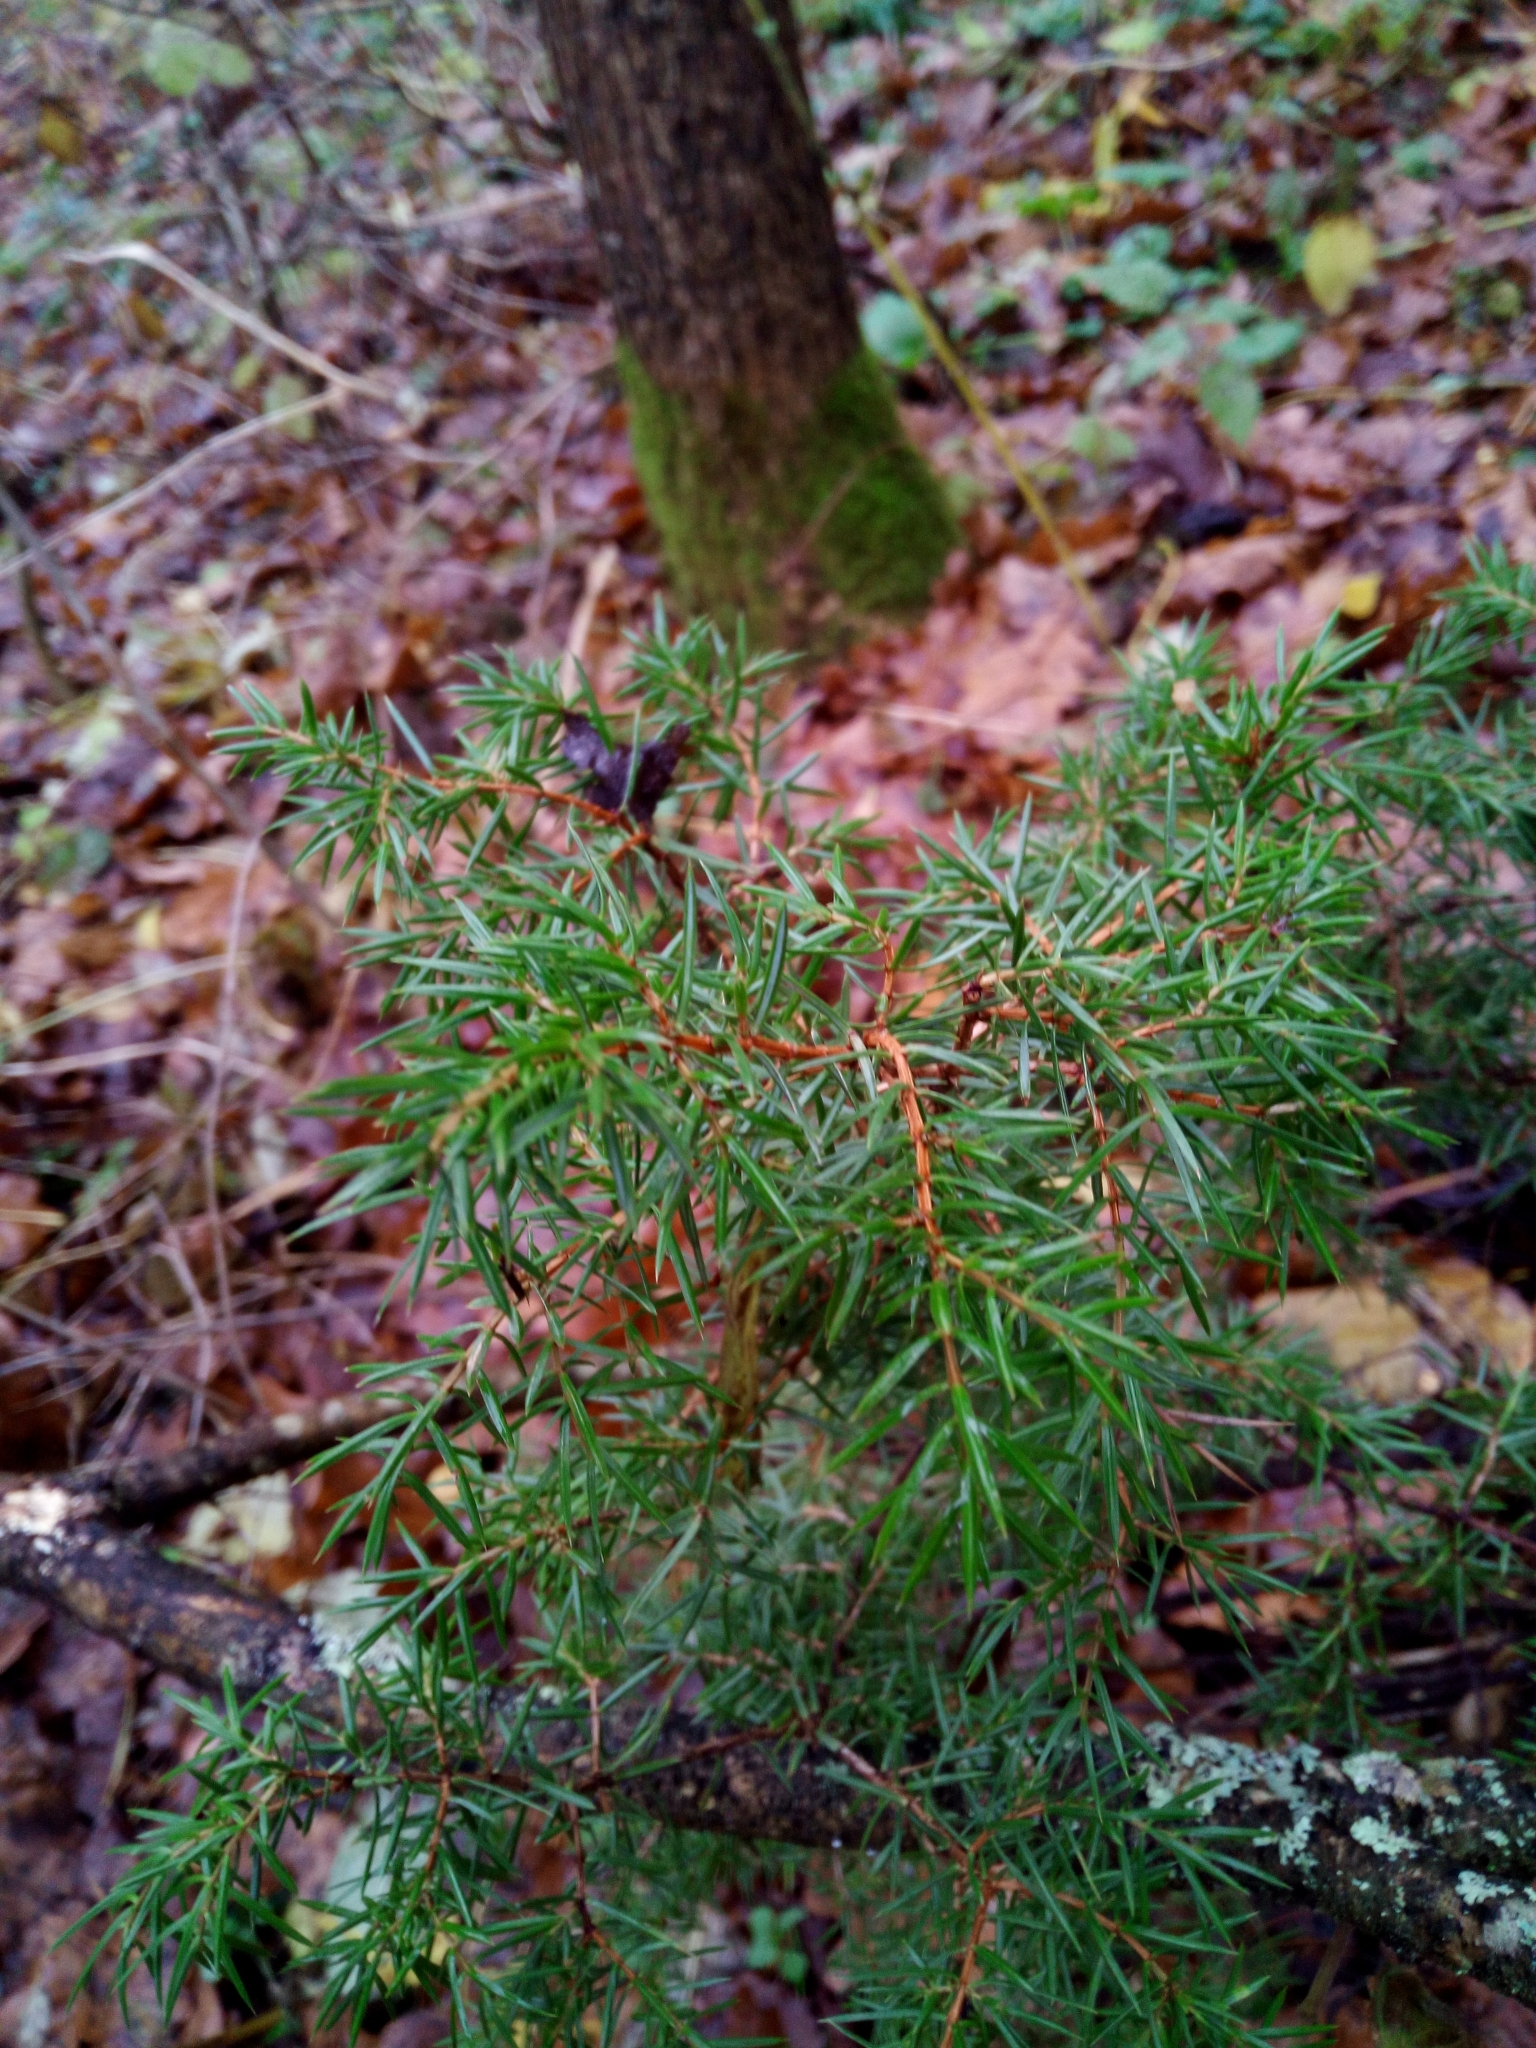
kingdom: Plantae
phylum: Tracheophyta
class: Pinopsida
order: Pinales
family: Cupressaceae
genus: Juniperus
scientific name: Juniperus communis
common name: Common juniper
